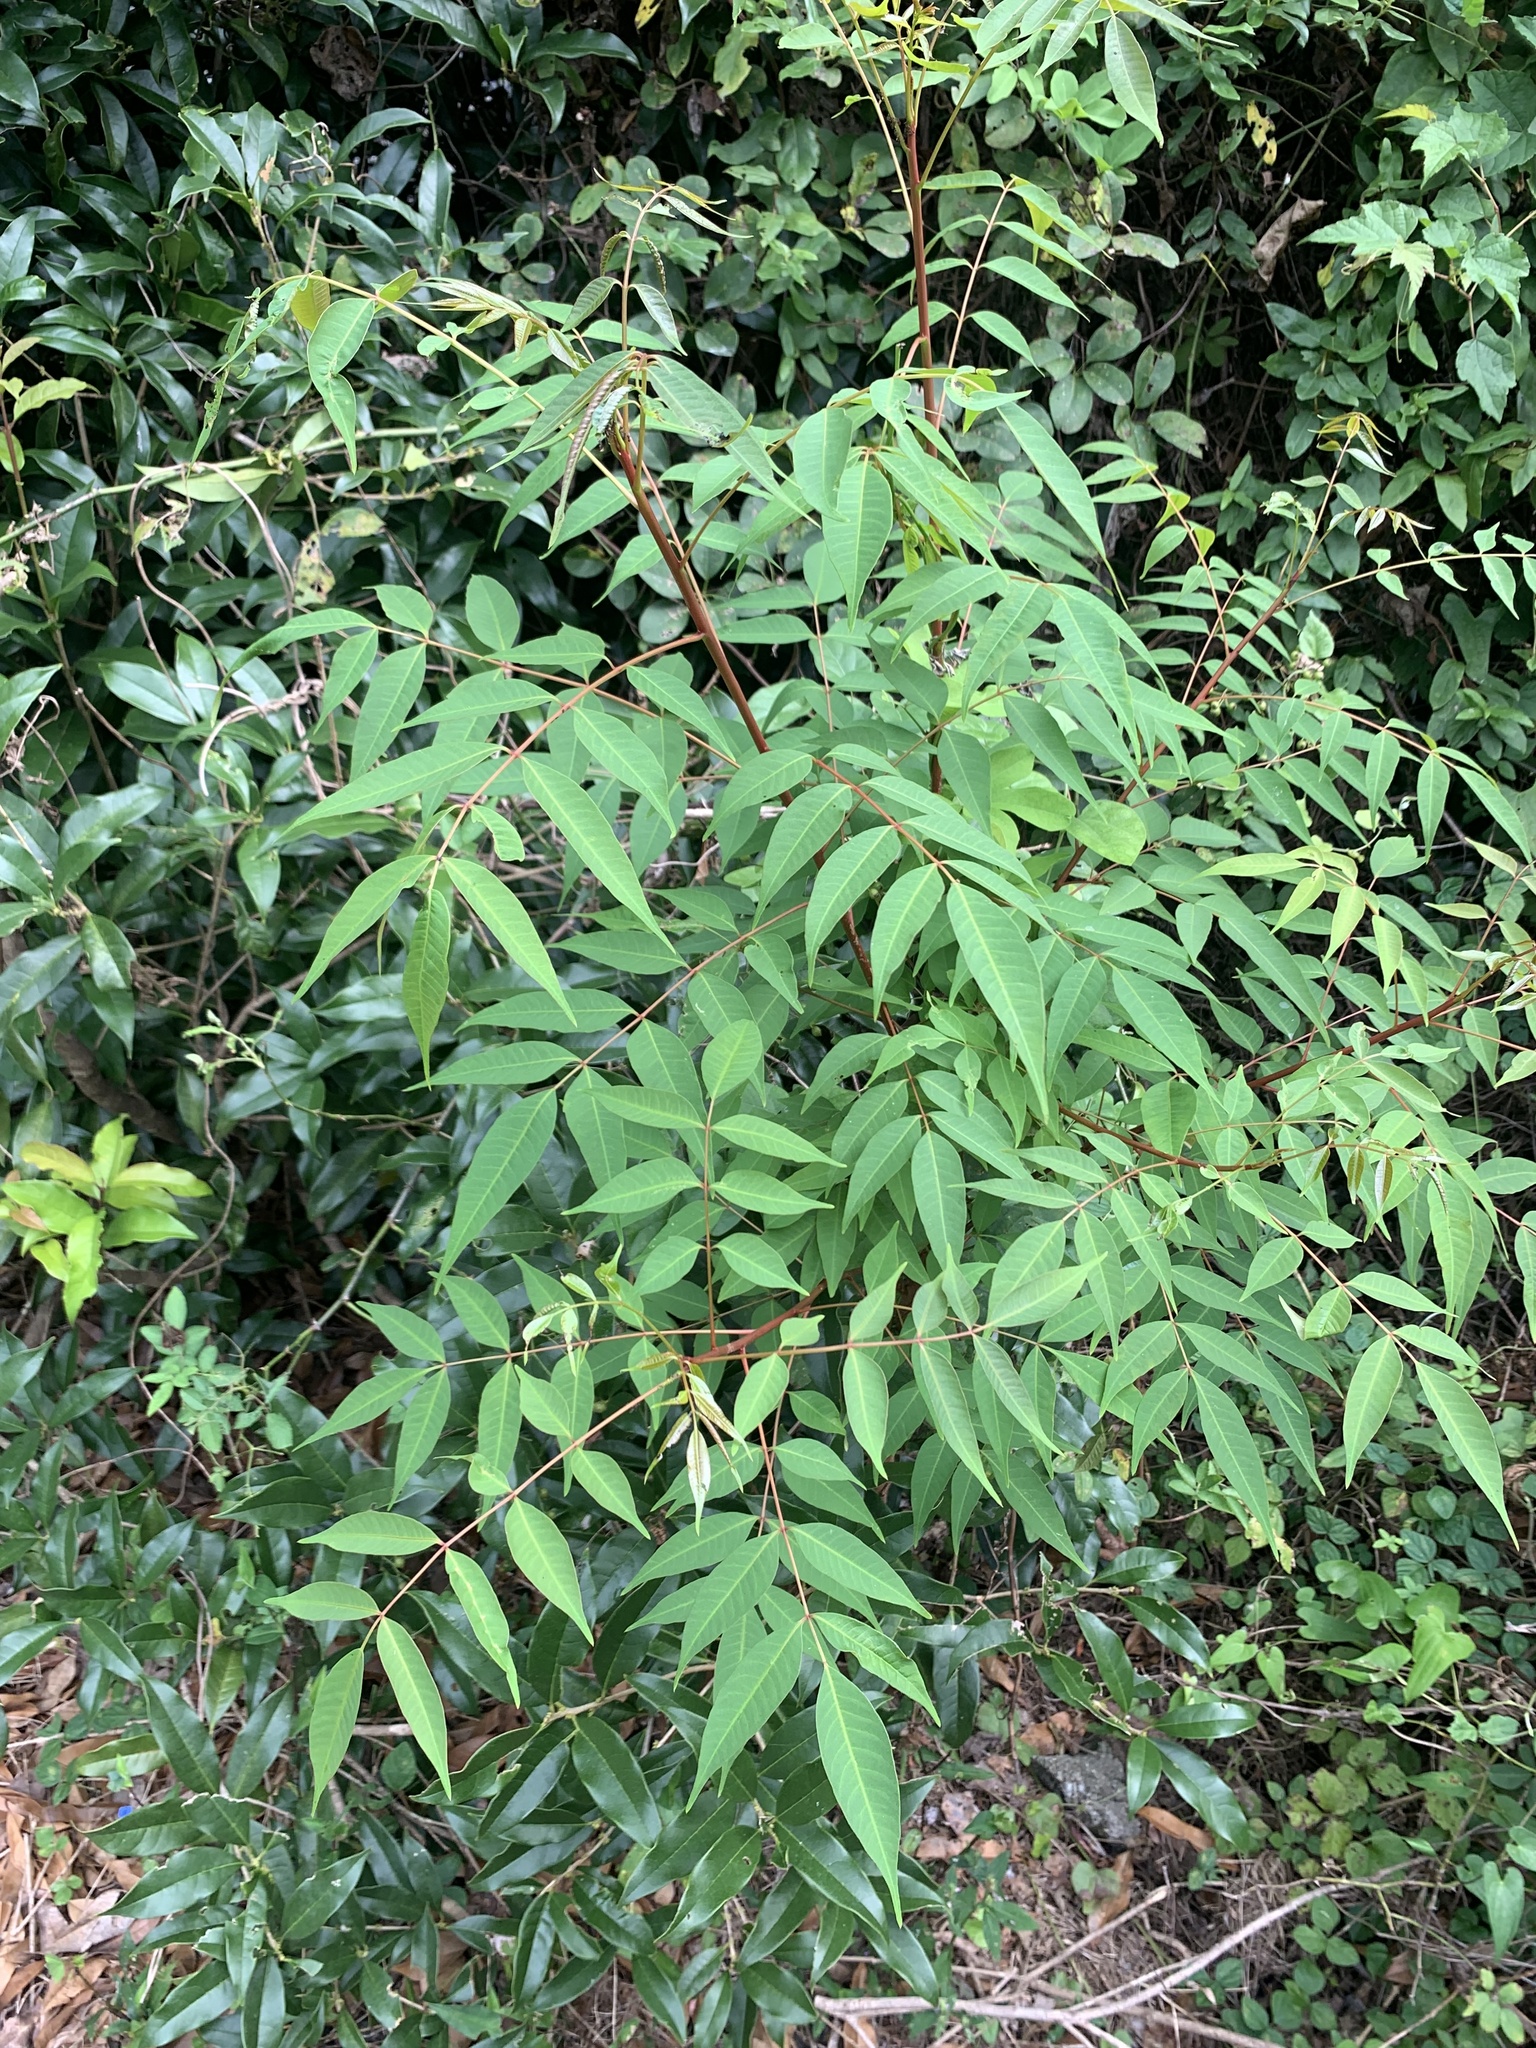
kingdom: Plantae
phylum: Tracheophyta
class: Magnoliopsida
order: Sapindales
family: Anacardiaceae
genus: Toxicodendron
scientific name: Toxicodendron succedaneum
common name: Wax tree
